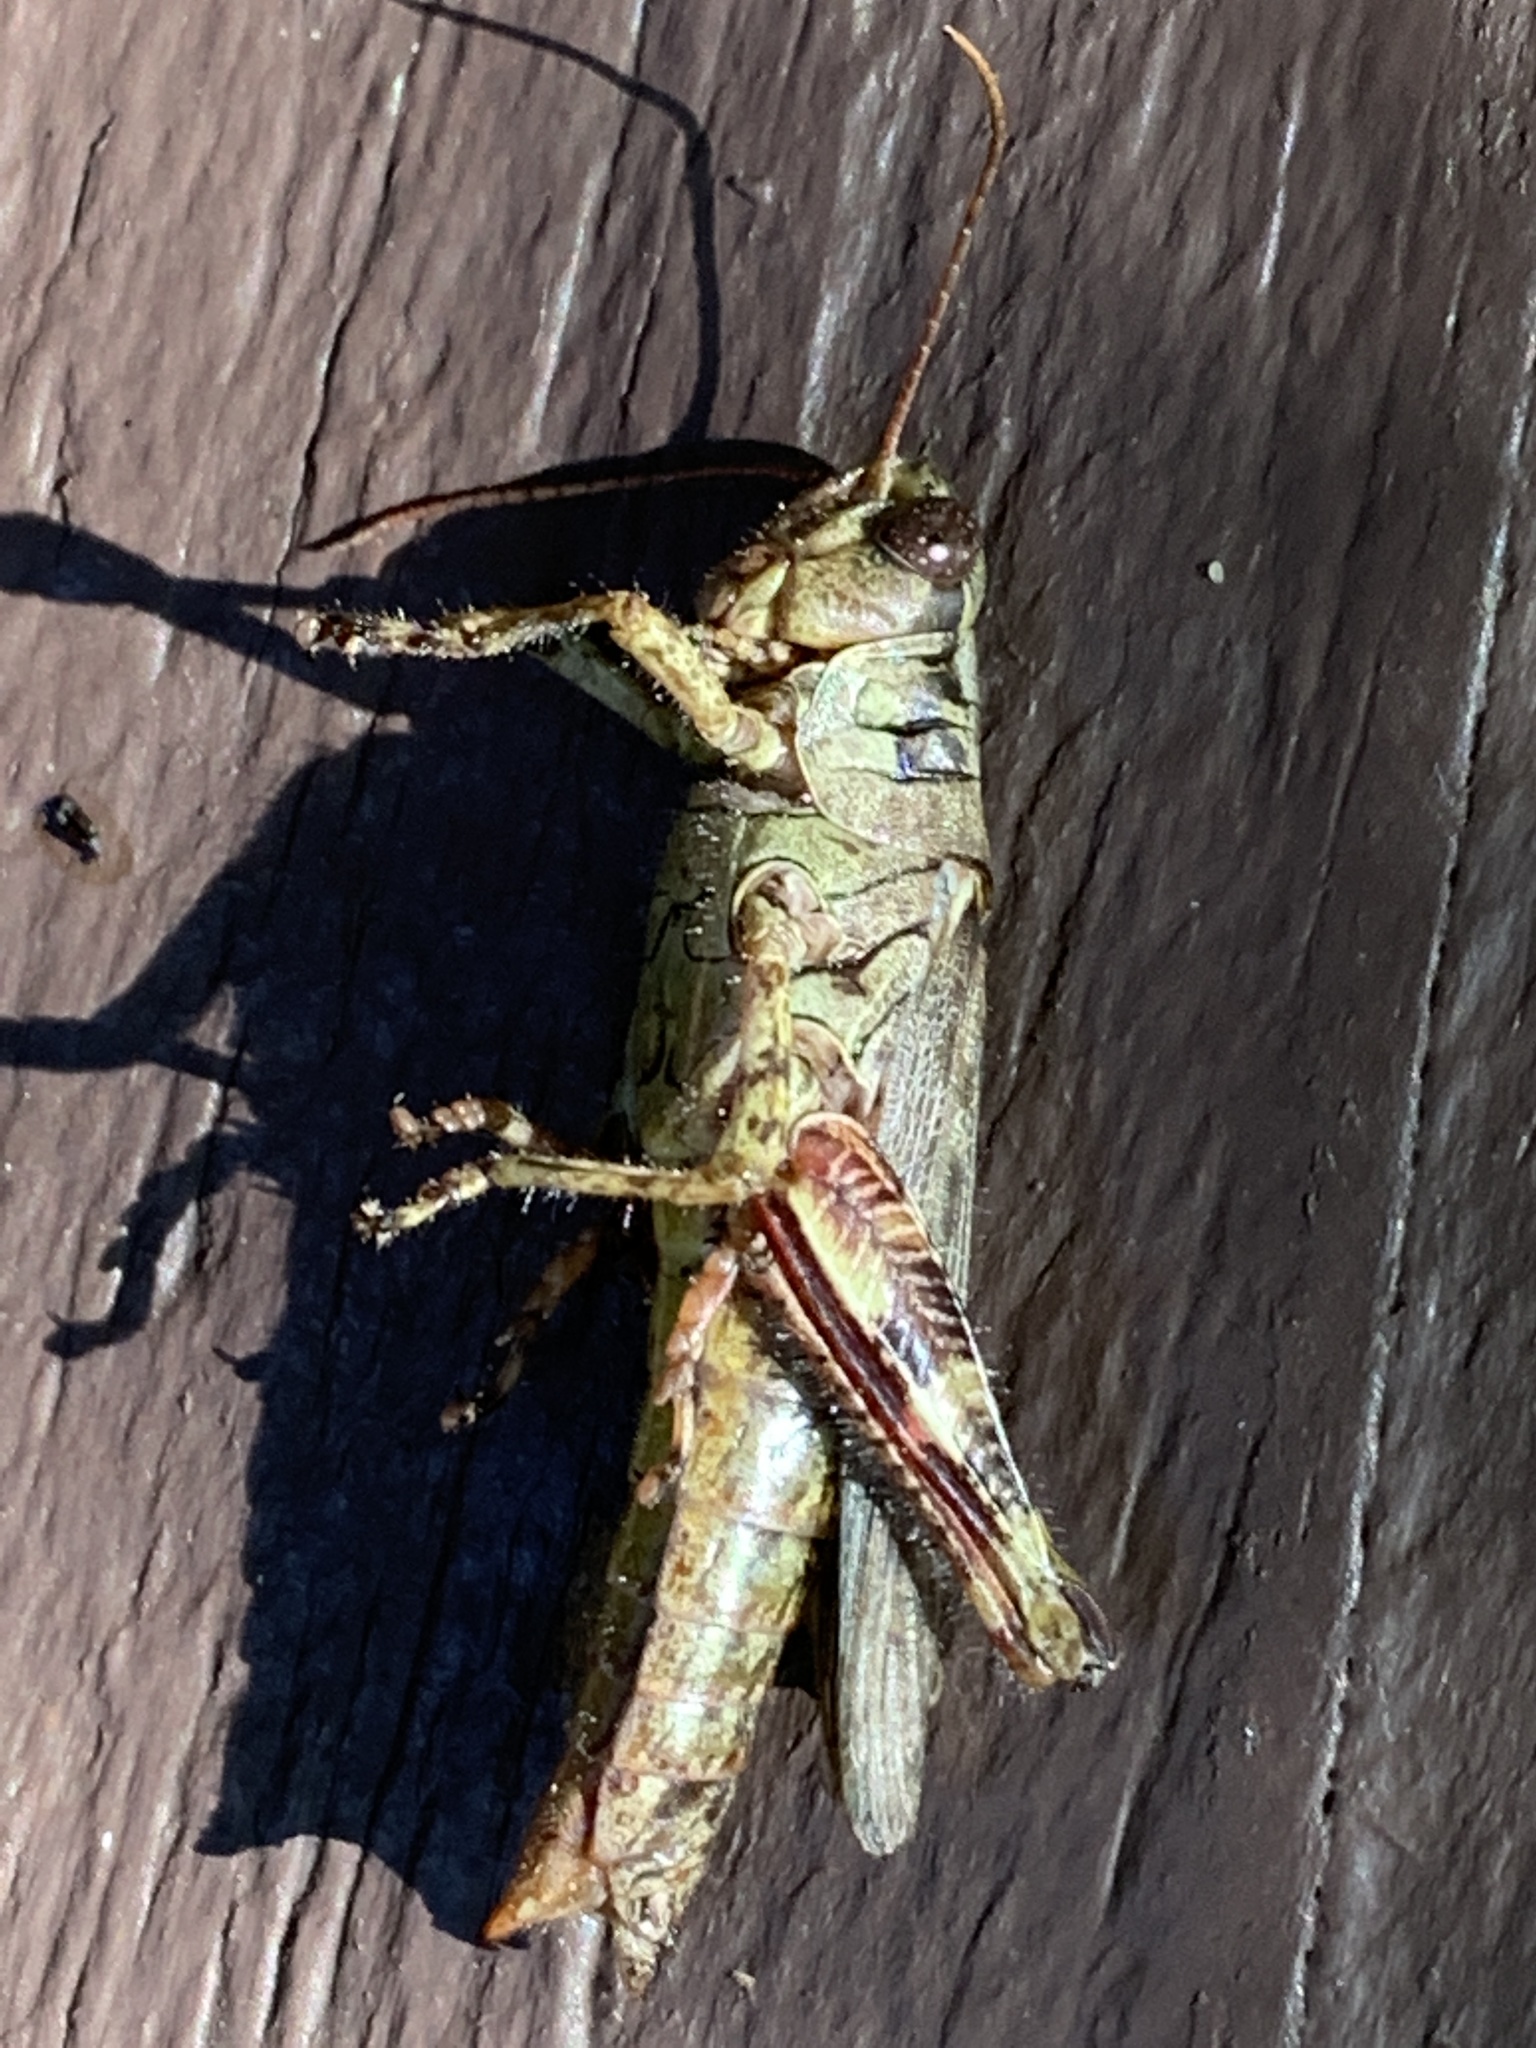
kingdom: Animalia
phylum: Arthropoda
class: Insecta
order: Orthoptera
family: Acrididae
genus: Melanoplus
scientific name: Melanoplus punctulatus
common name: Pine-tree spur-throat grasshopper
